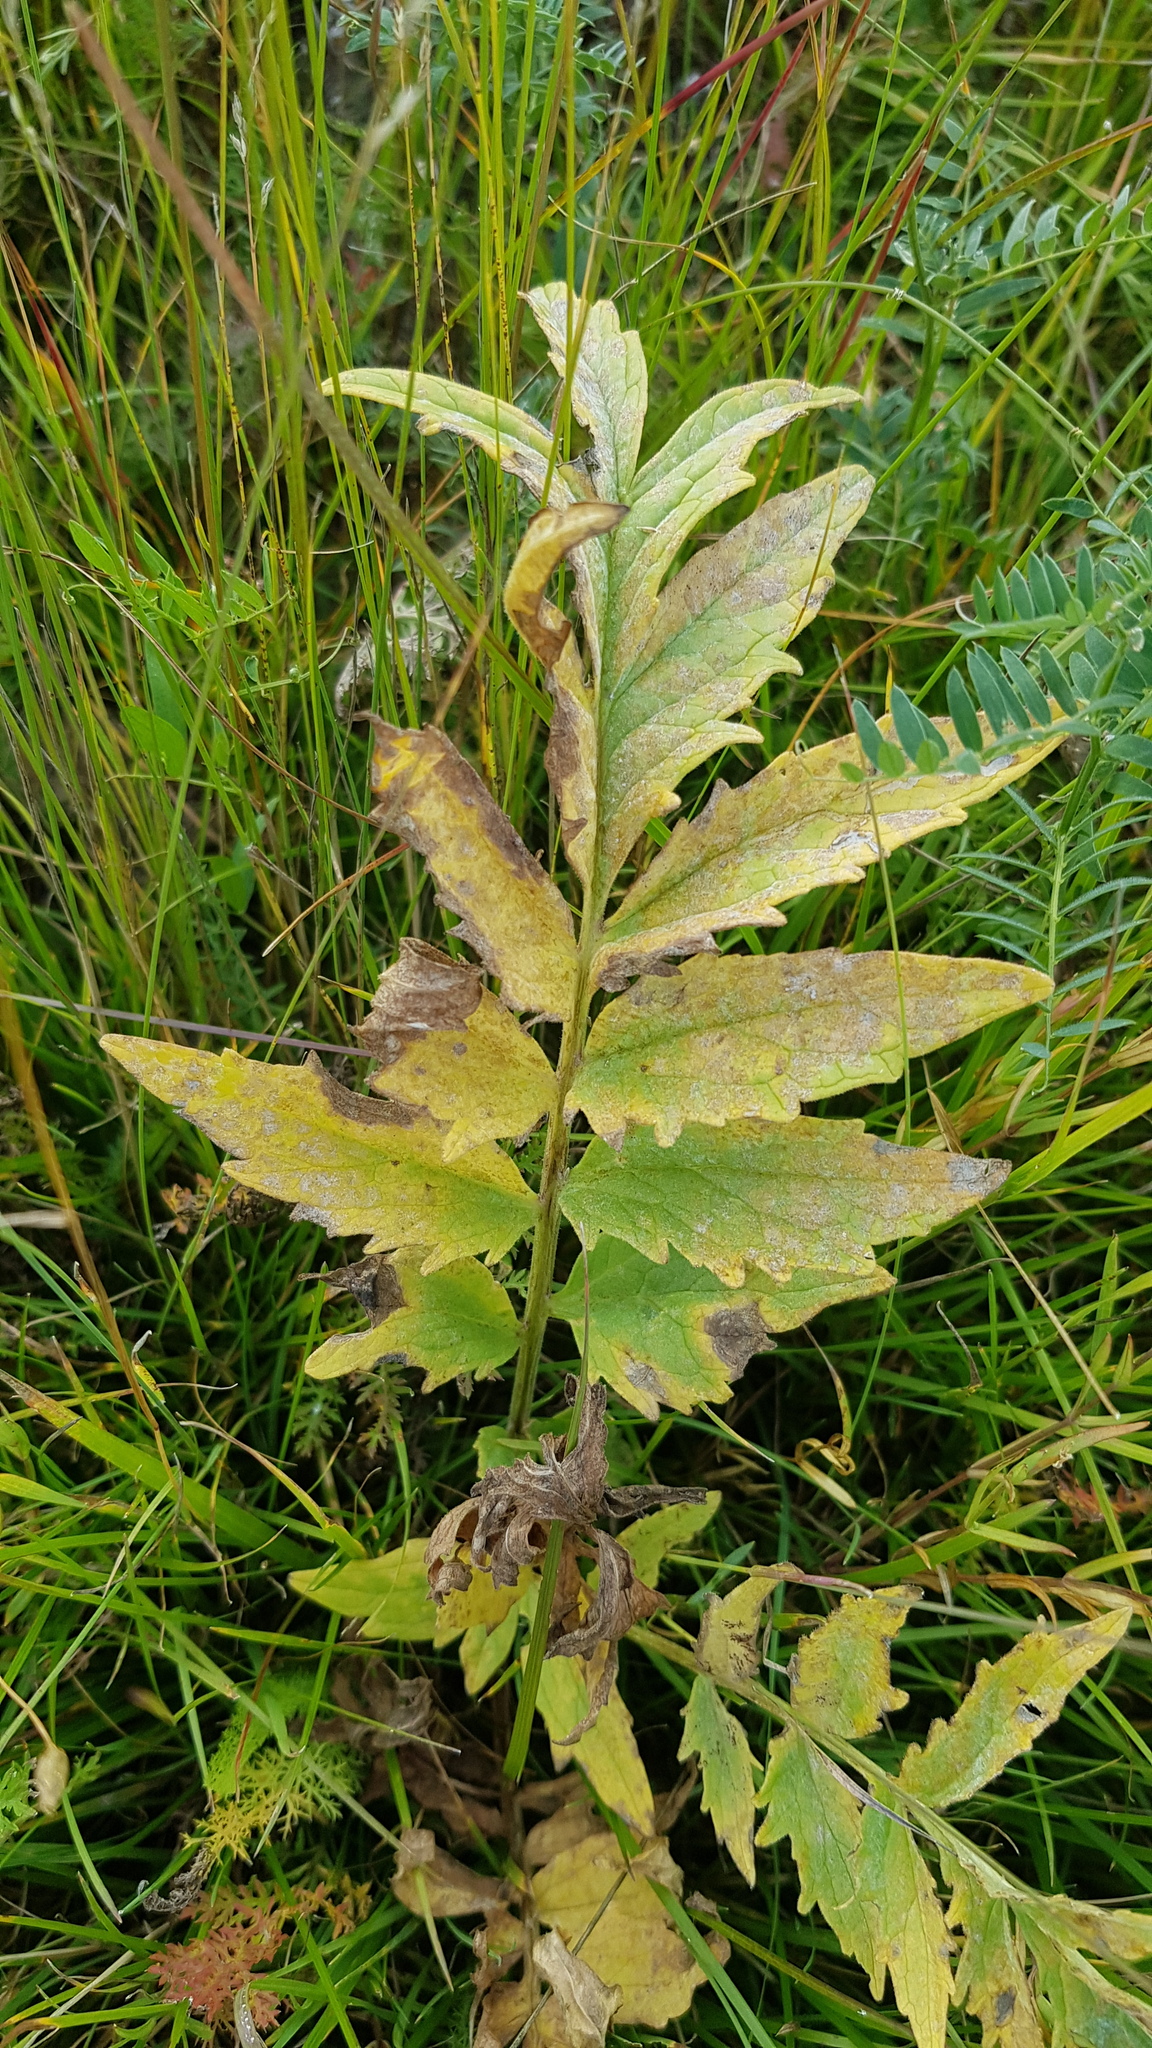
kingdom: Plantae
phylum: Tracheophyta
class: Magnoliopsida
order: Dipsacales
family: Caprifoliaceae
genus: Valeriana
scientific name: Valeriana officinalis
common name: Common valerian
